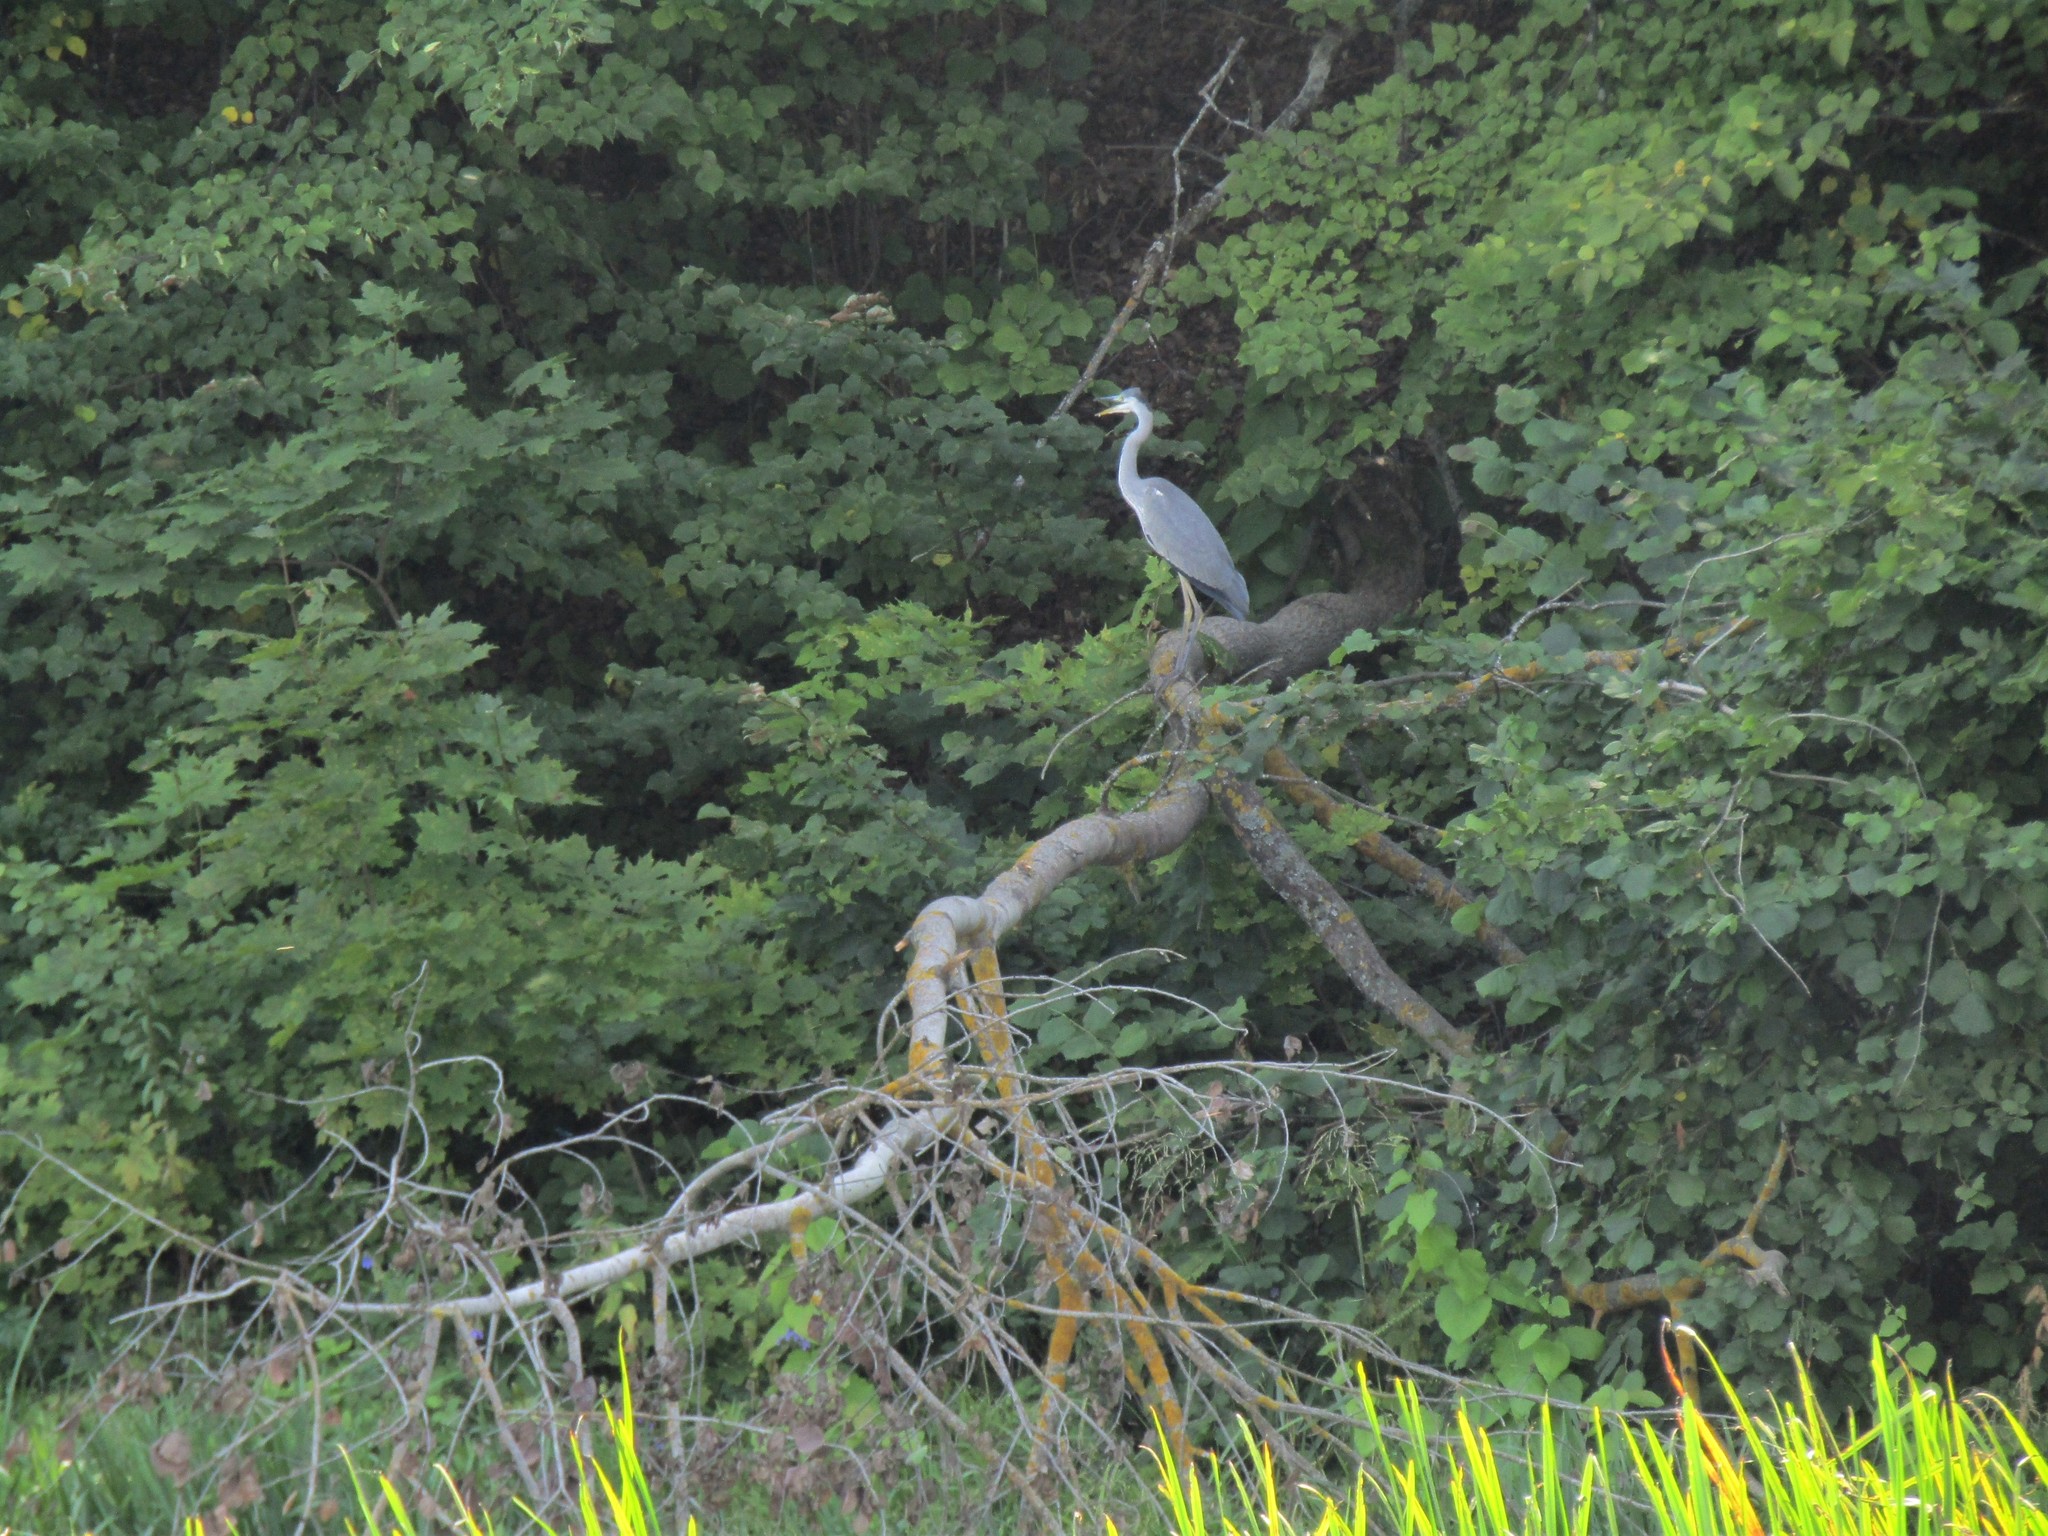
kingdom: Animalia
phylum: Chordata
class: Aves
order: Pelecaniformes
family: Ardeidae
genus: Ardea
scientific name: Ardea cinerea
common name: Grey heron
